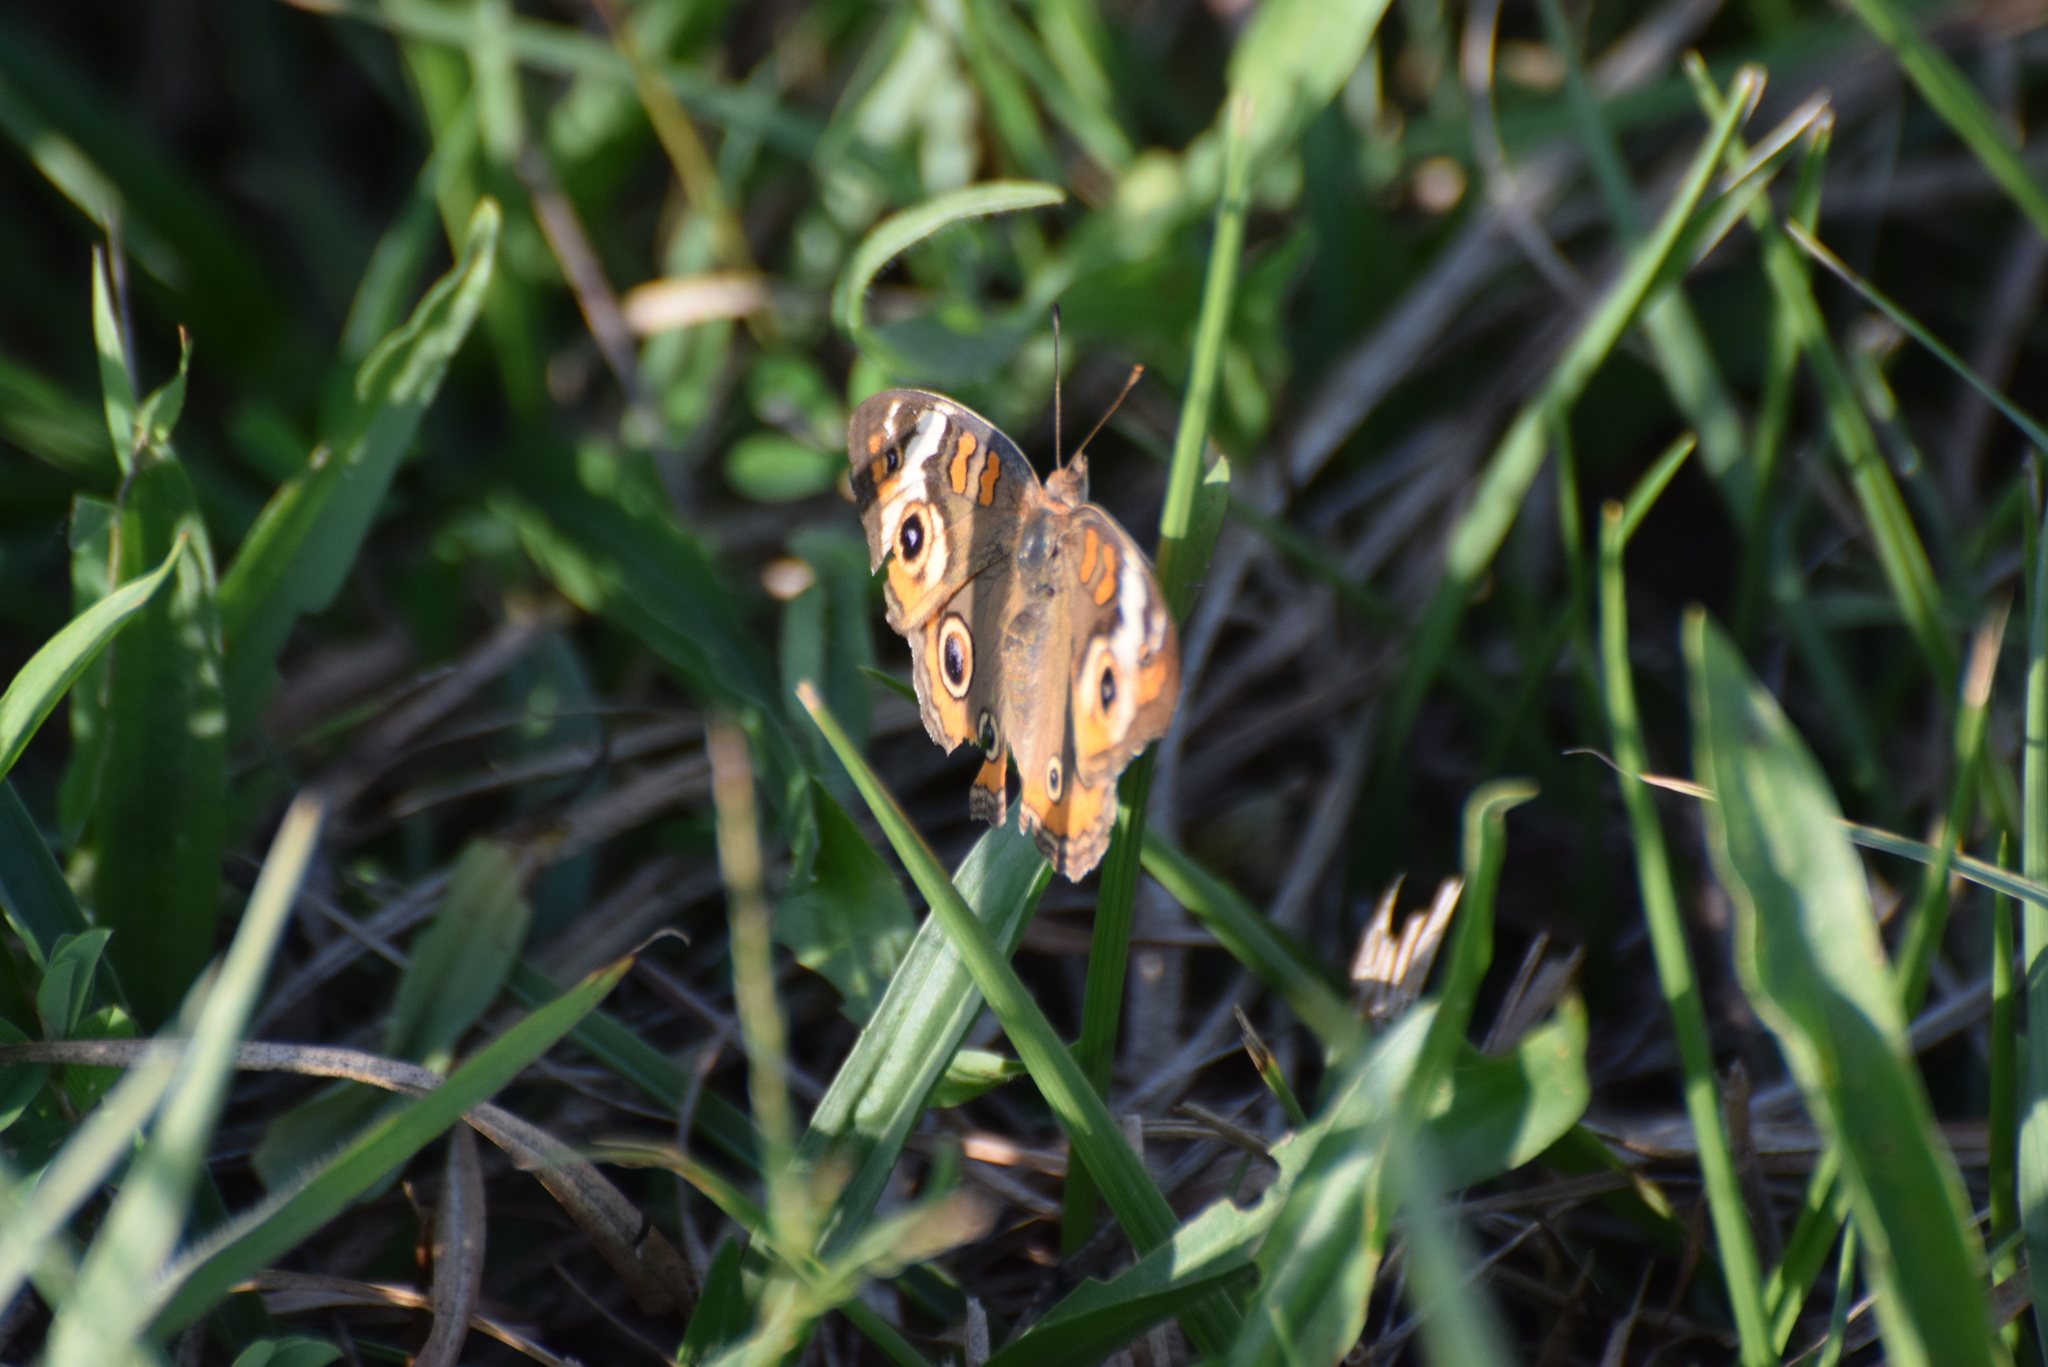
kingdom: Animalia
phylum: Arthropoda
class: Insecta
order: Lepidoptera
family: Nymphalidae
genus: Junonia
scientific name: Junonia coenia
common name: Common buckeye
